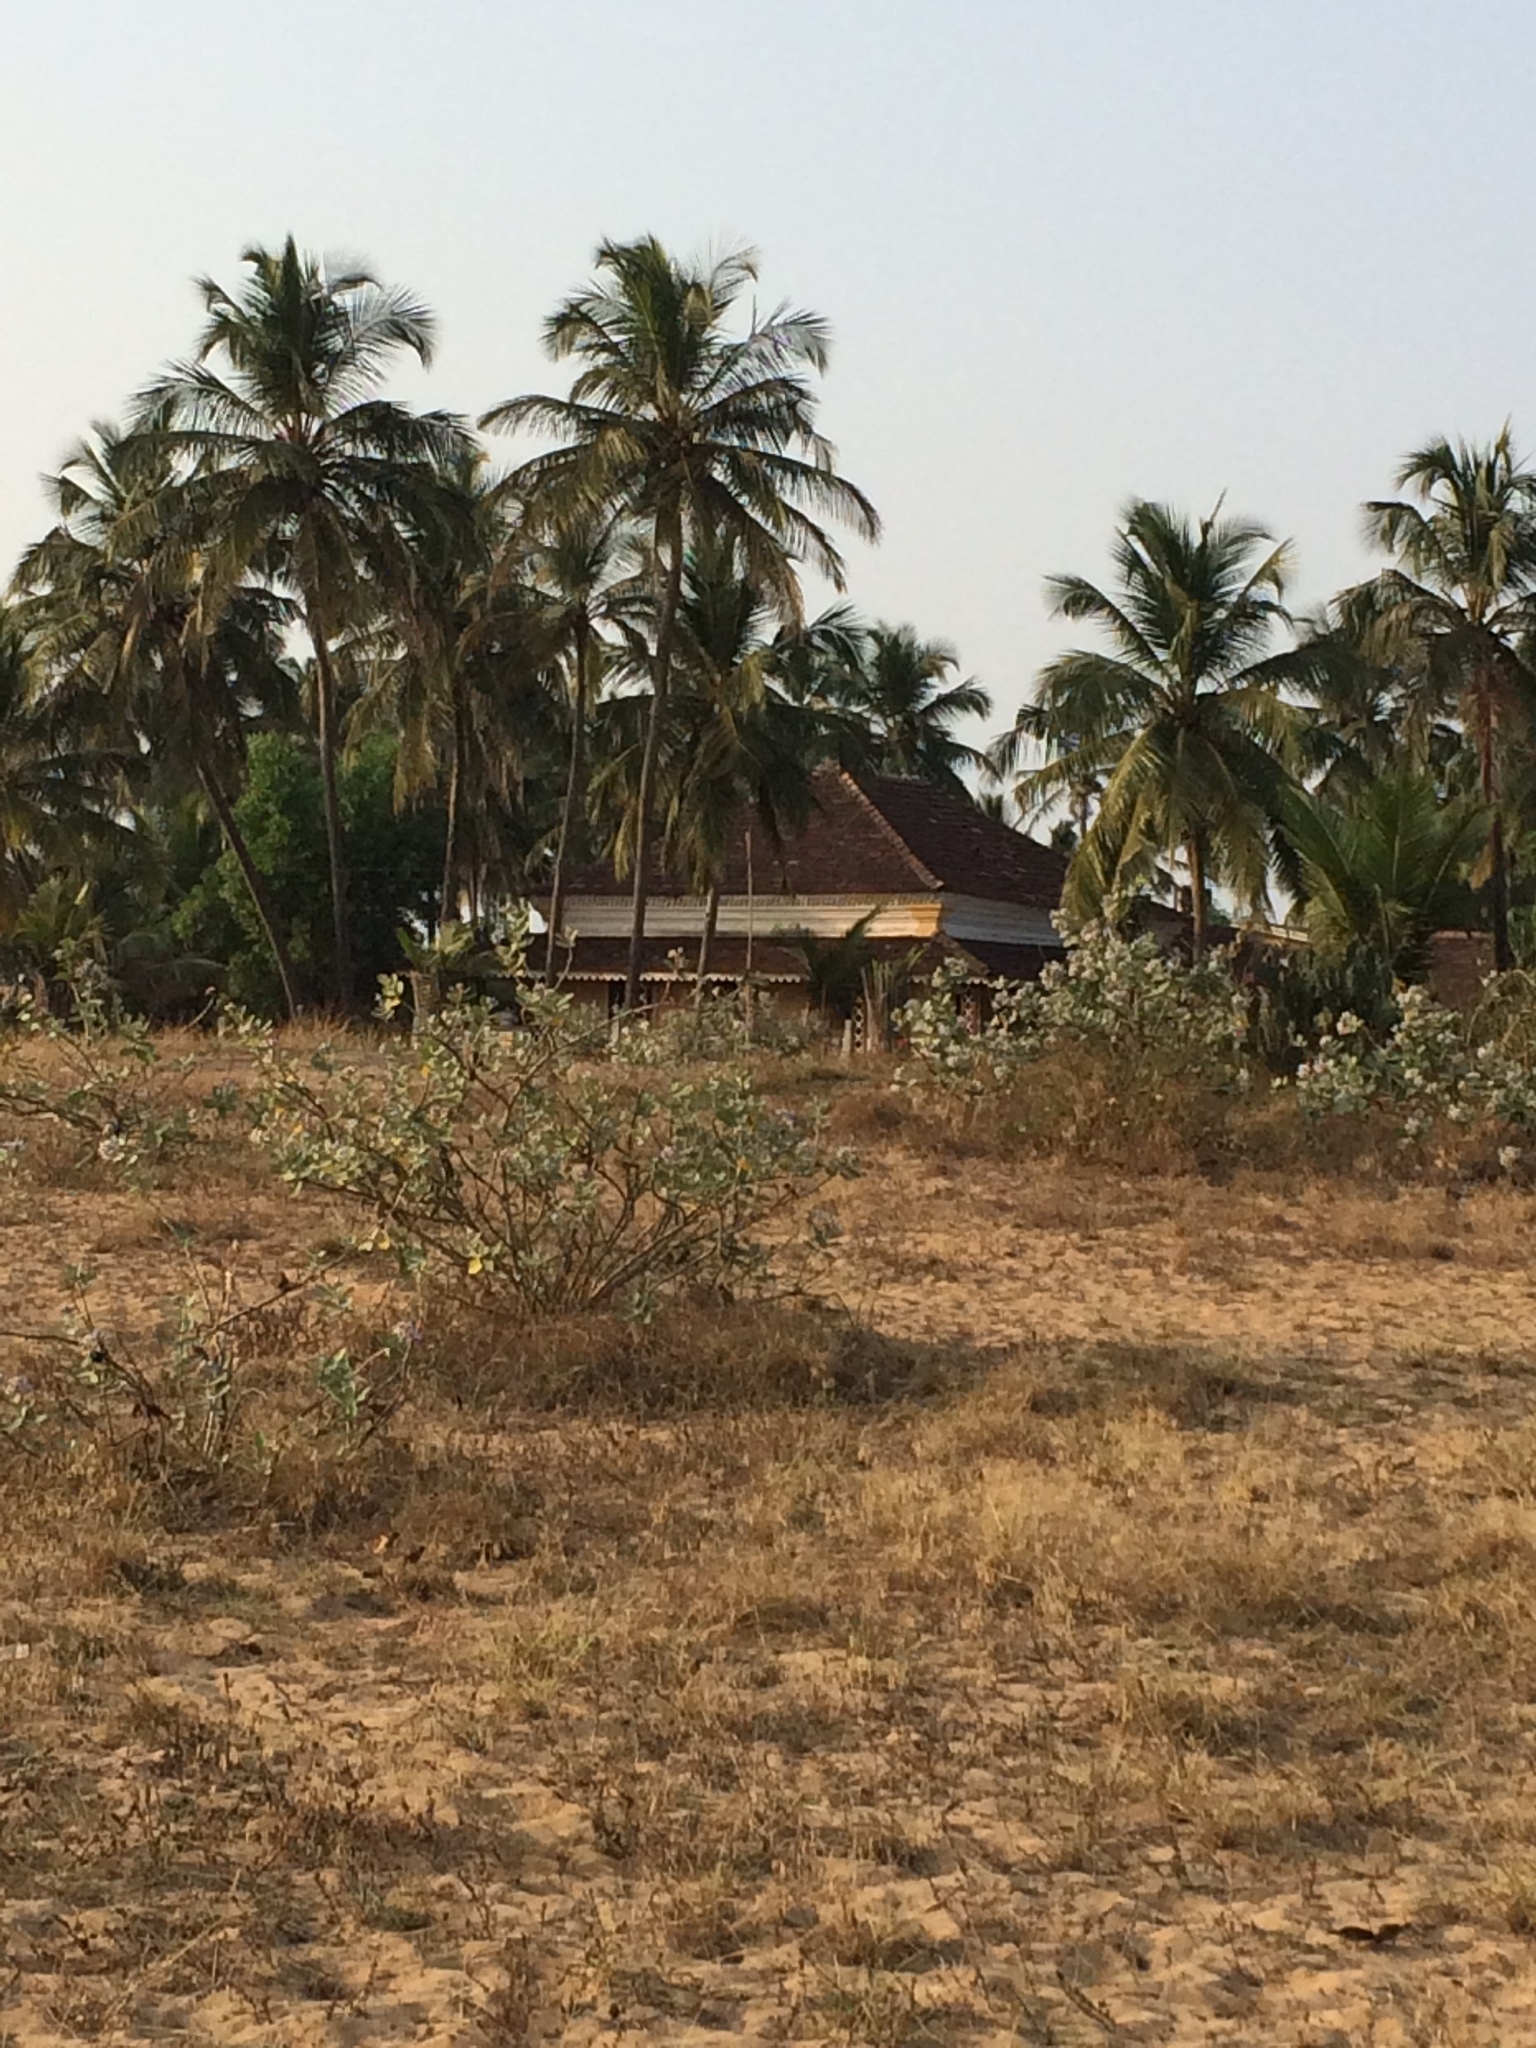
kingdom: Plantae
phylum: Tracheophyta
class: Liliopsida
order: Arecales
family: Arecaceae
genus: Cocos
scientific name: Cocos nucifera
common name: Coconut palm
